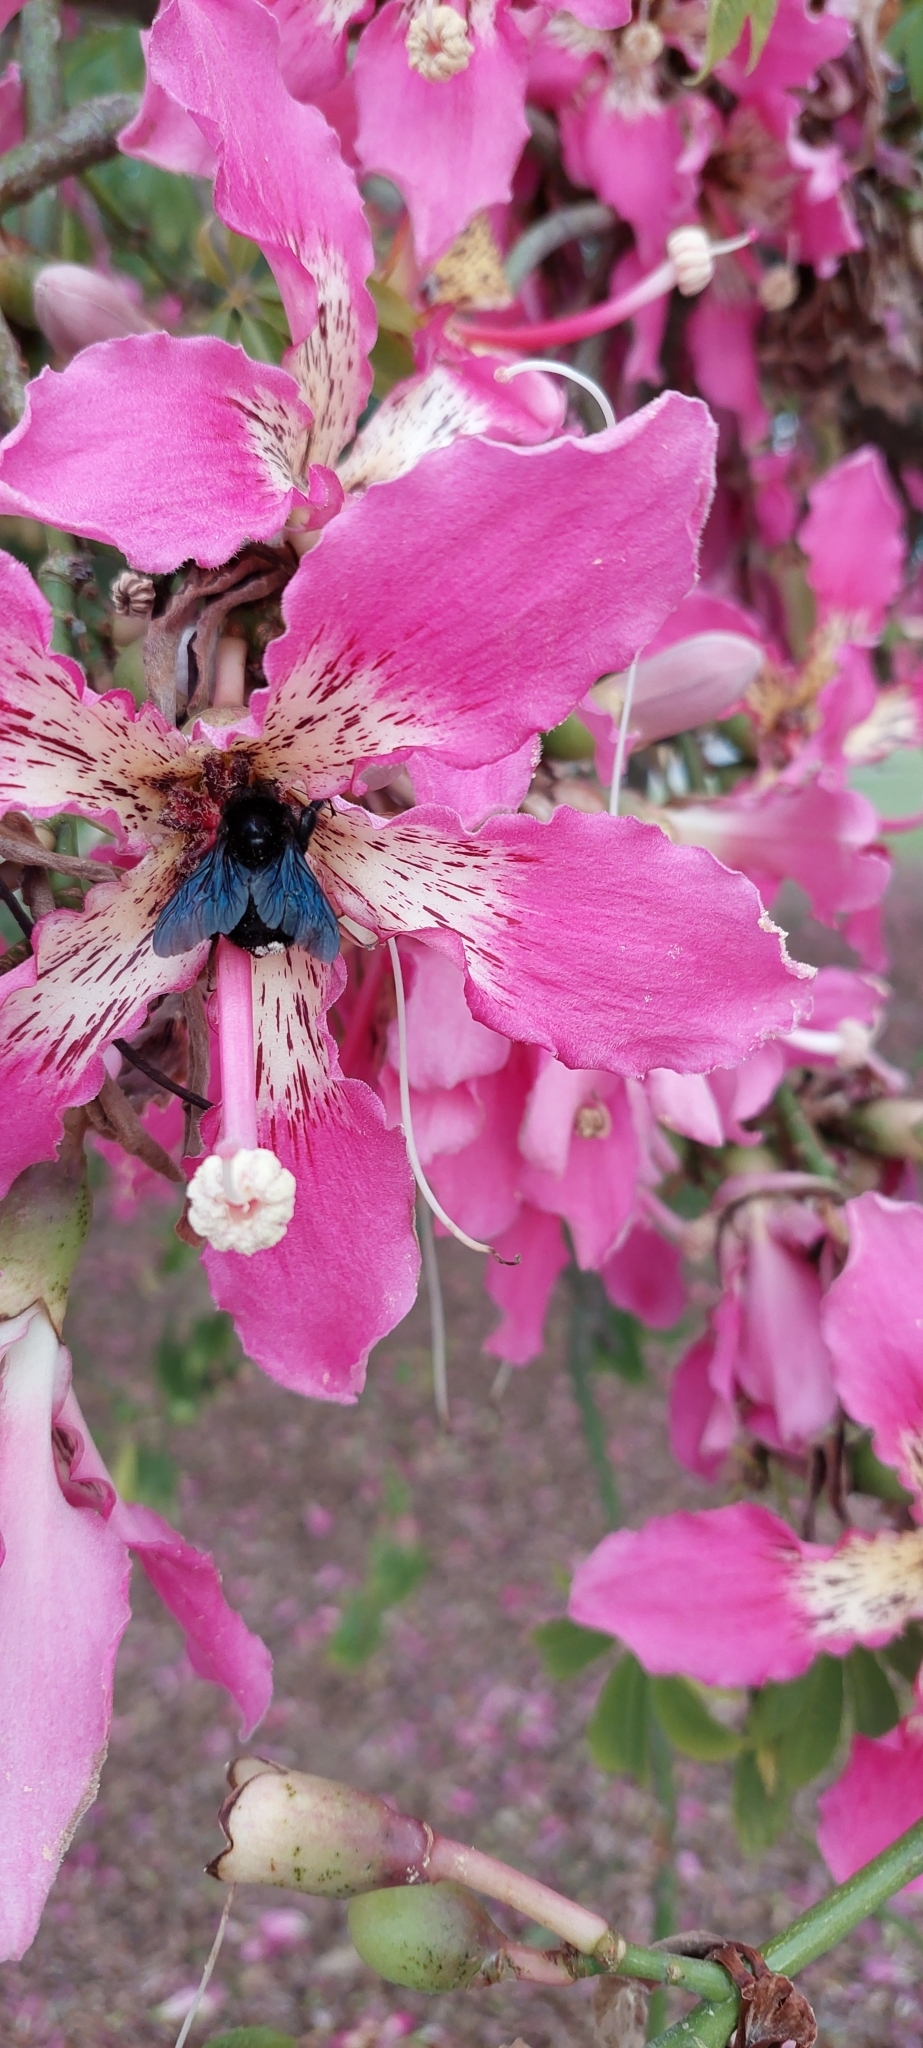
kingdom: Animalia
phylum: Arthropoda
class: Insecta
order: Hymenoptera
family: Apidae
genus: Bombus
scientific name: Bombus pauloensis
